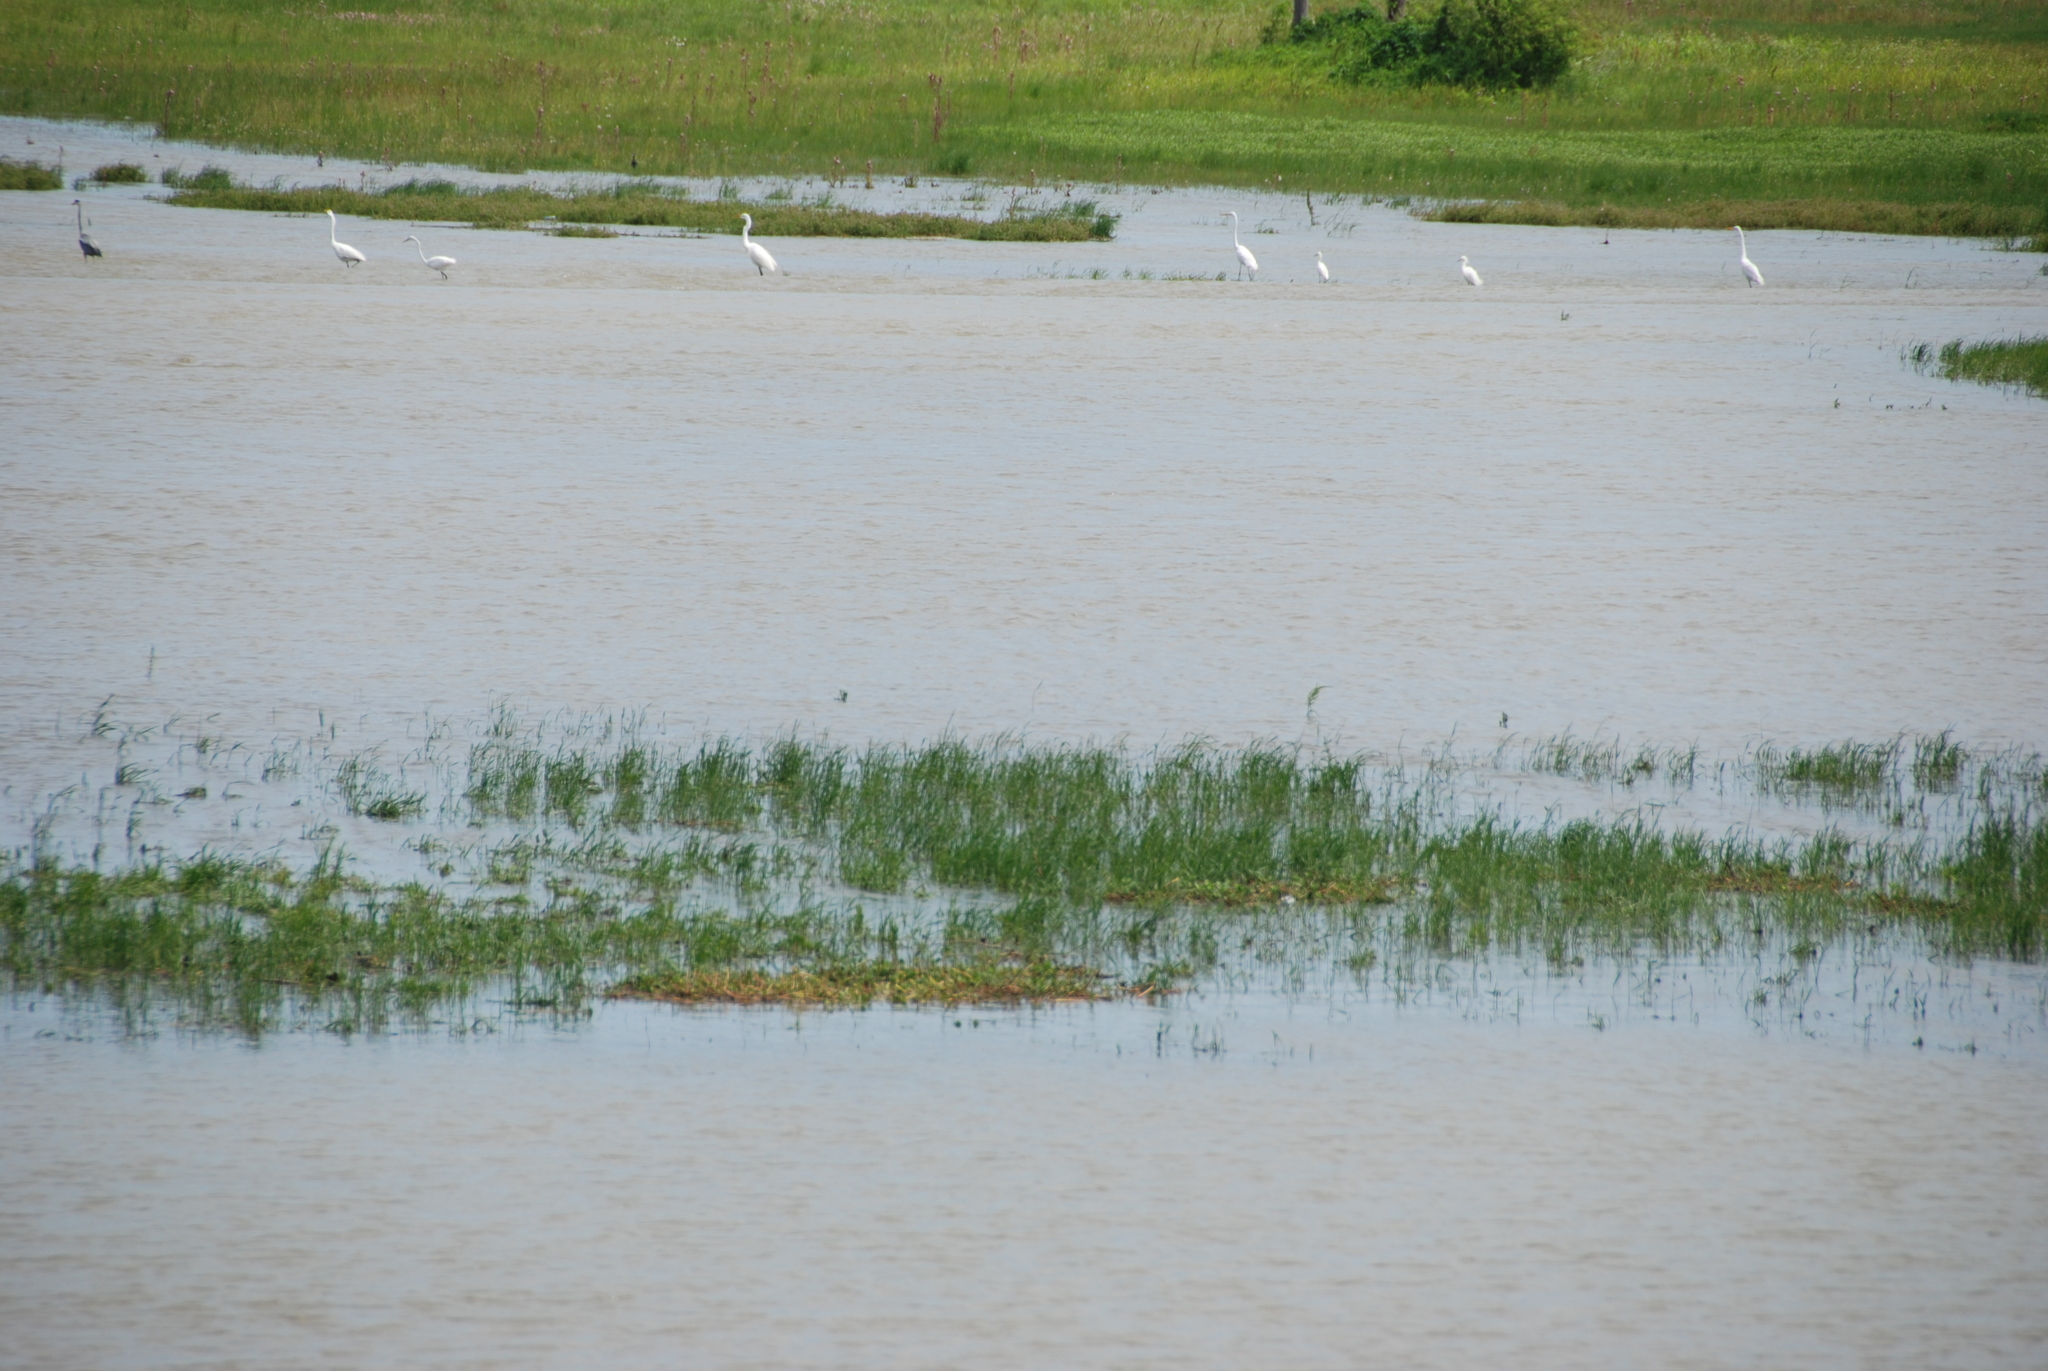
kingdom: Animalia
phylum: Chordata
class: Aves
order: Pelecaniformes
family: Ardeidae
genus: Ardea
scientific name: Ardea herodias
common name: Great blue heron
